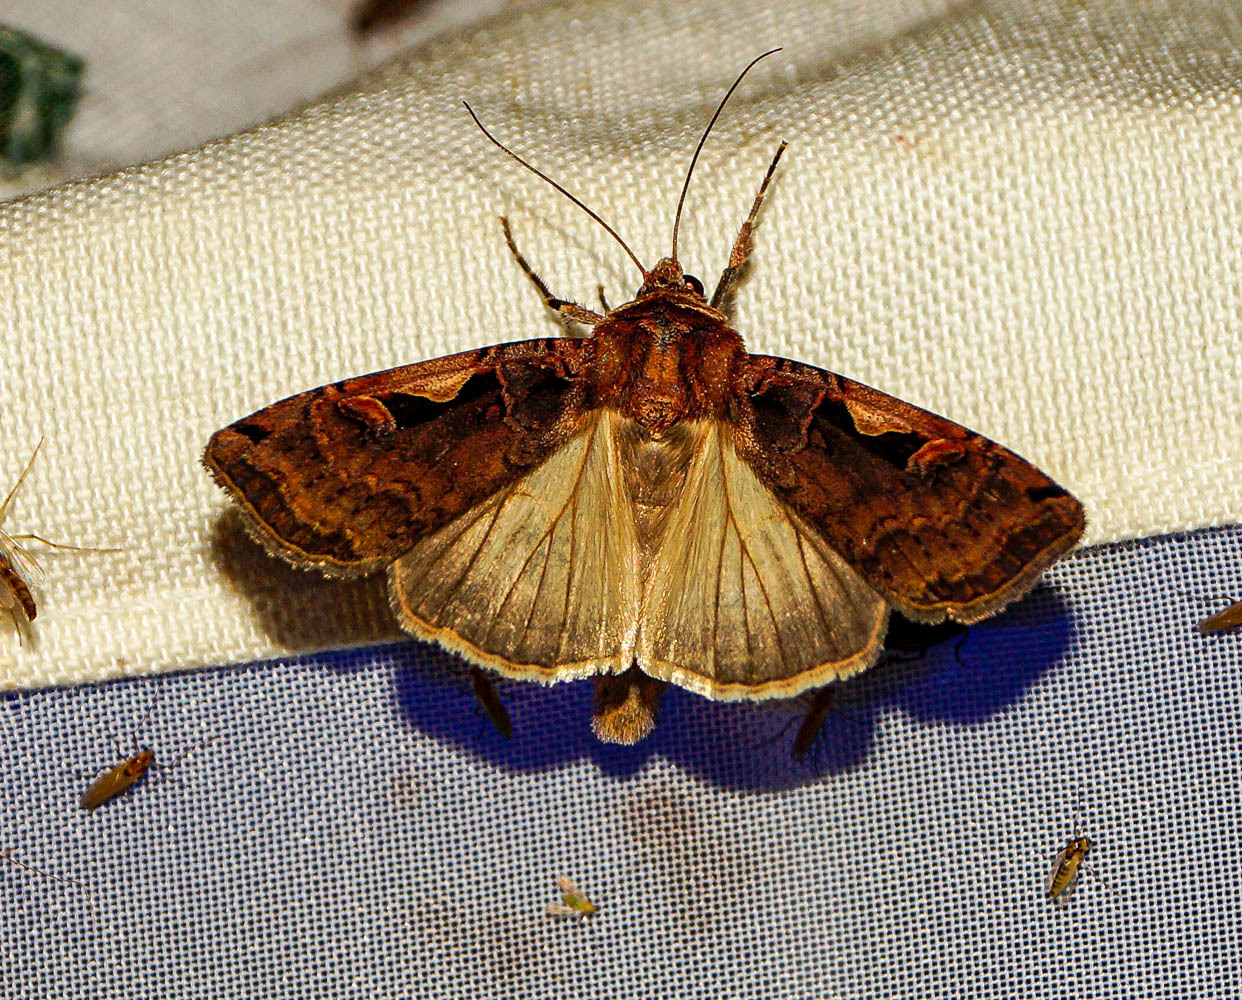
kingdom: Animalia
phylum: Arthropoda
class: Insecta
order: Lepidoptera
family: Noctuidae
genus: Xestia
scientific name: Xestia c-nigrum
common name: Setaceous hebrew character
